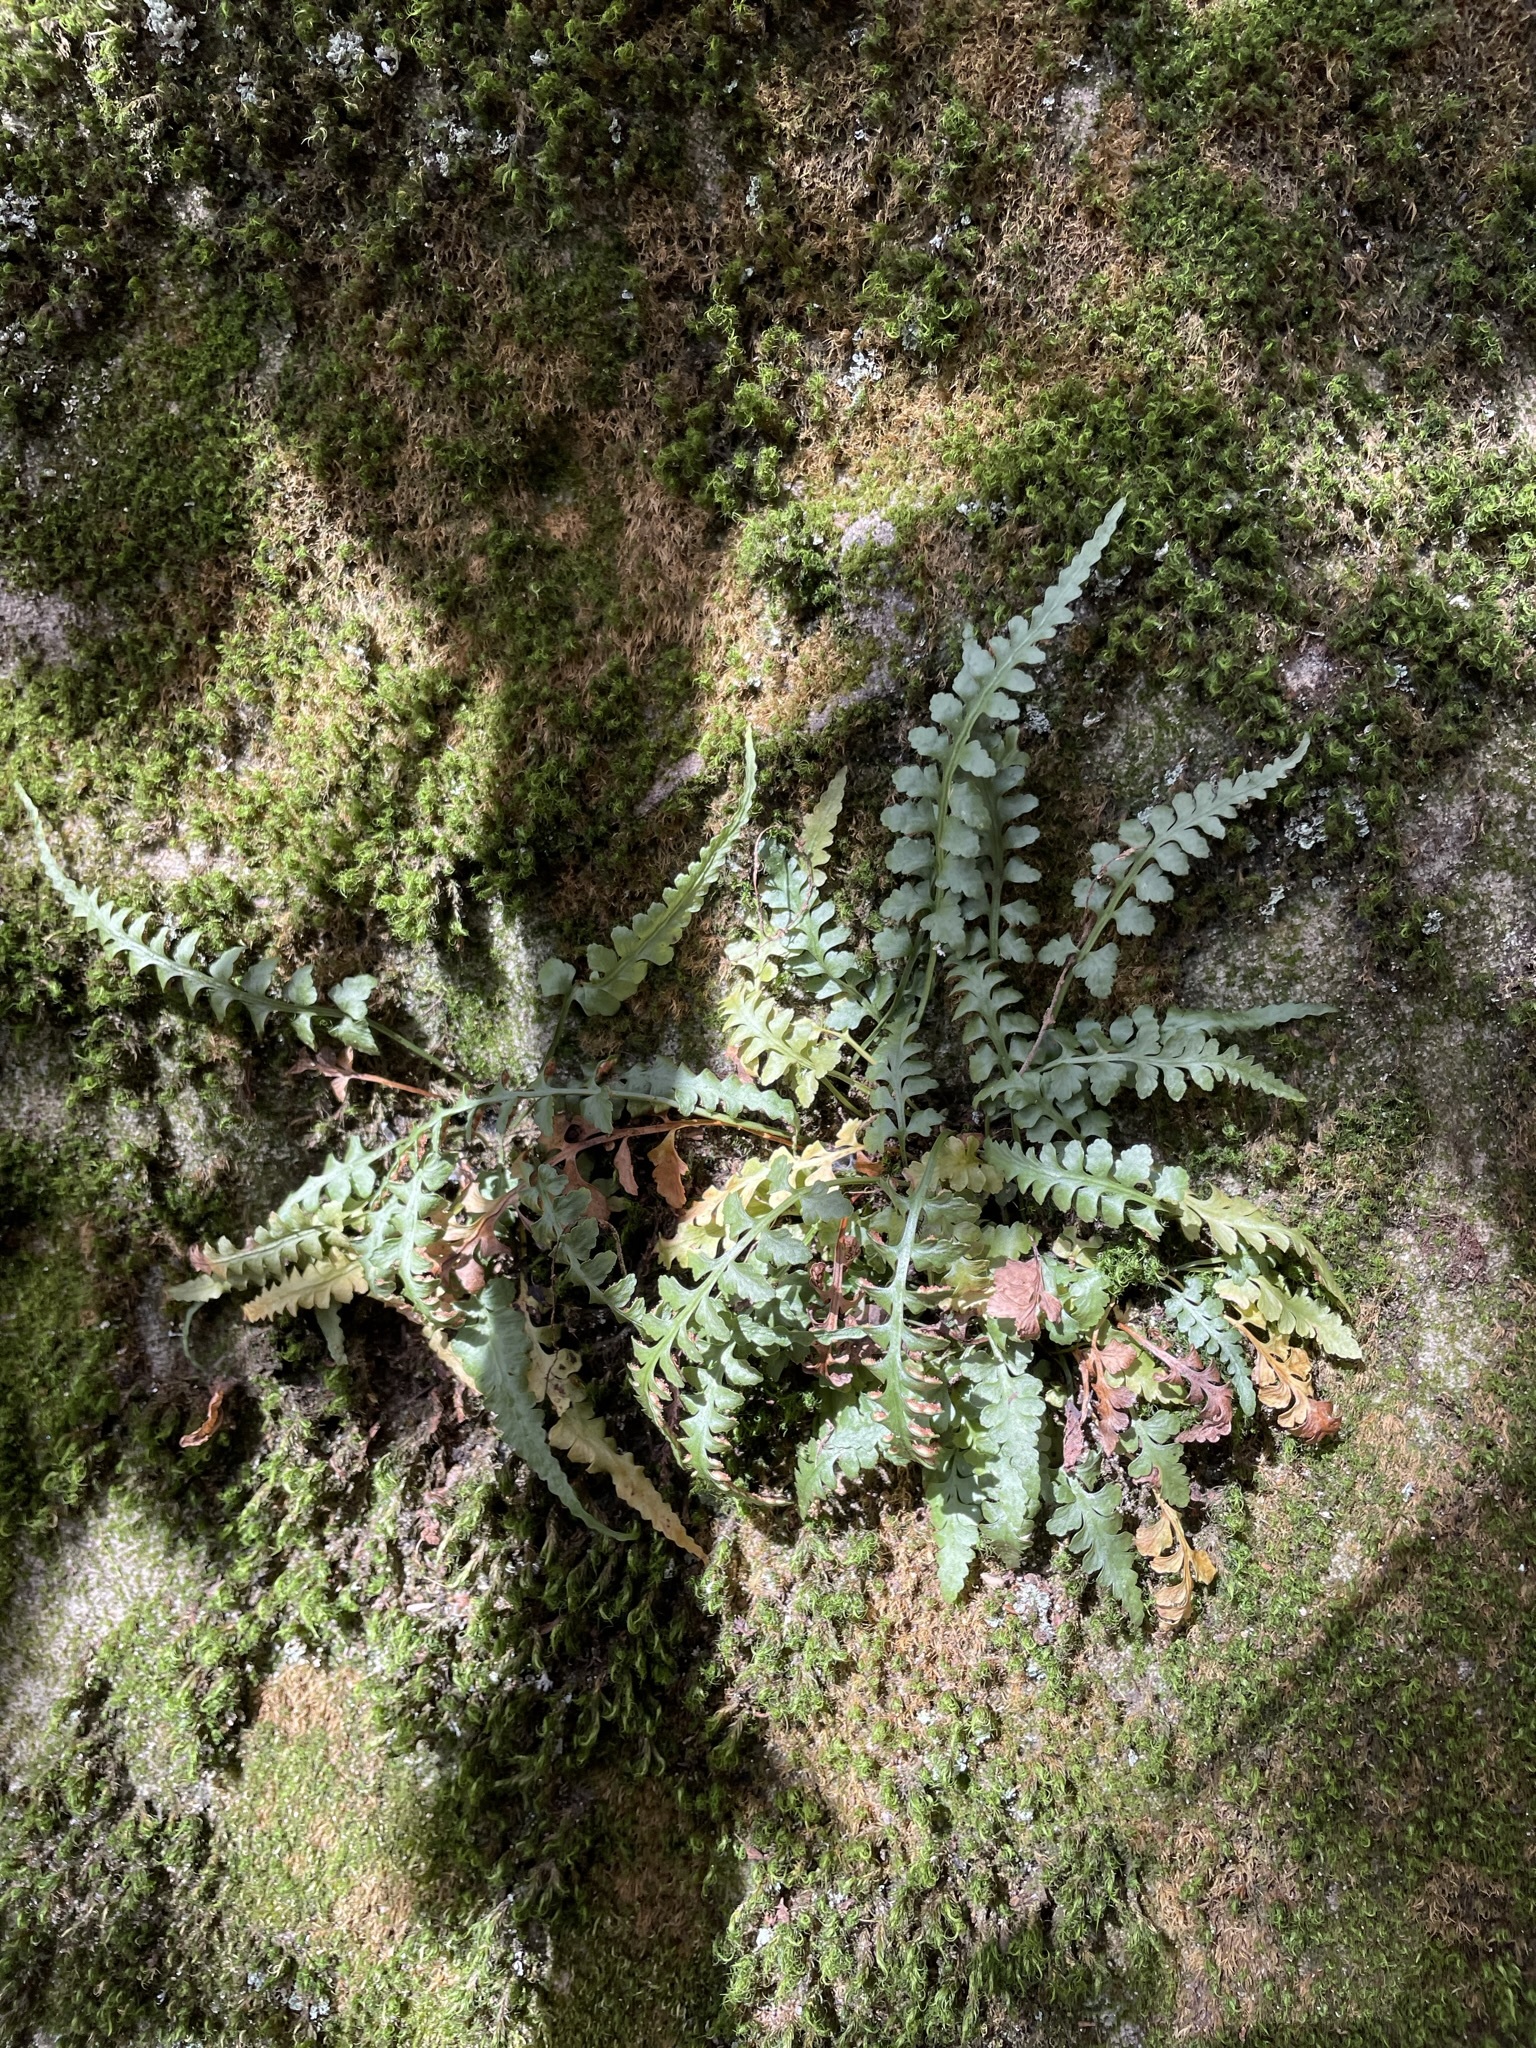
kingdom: Plantae
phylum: Tracheophyta
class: Polypodiopsida
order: Polypodiales
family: Aspleniaceae
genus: Asplenium
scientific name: Asplenium bradleyi
